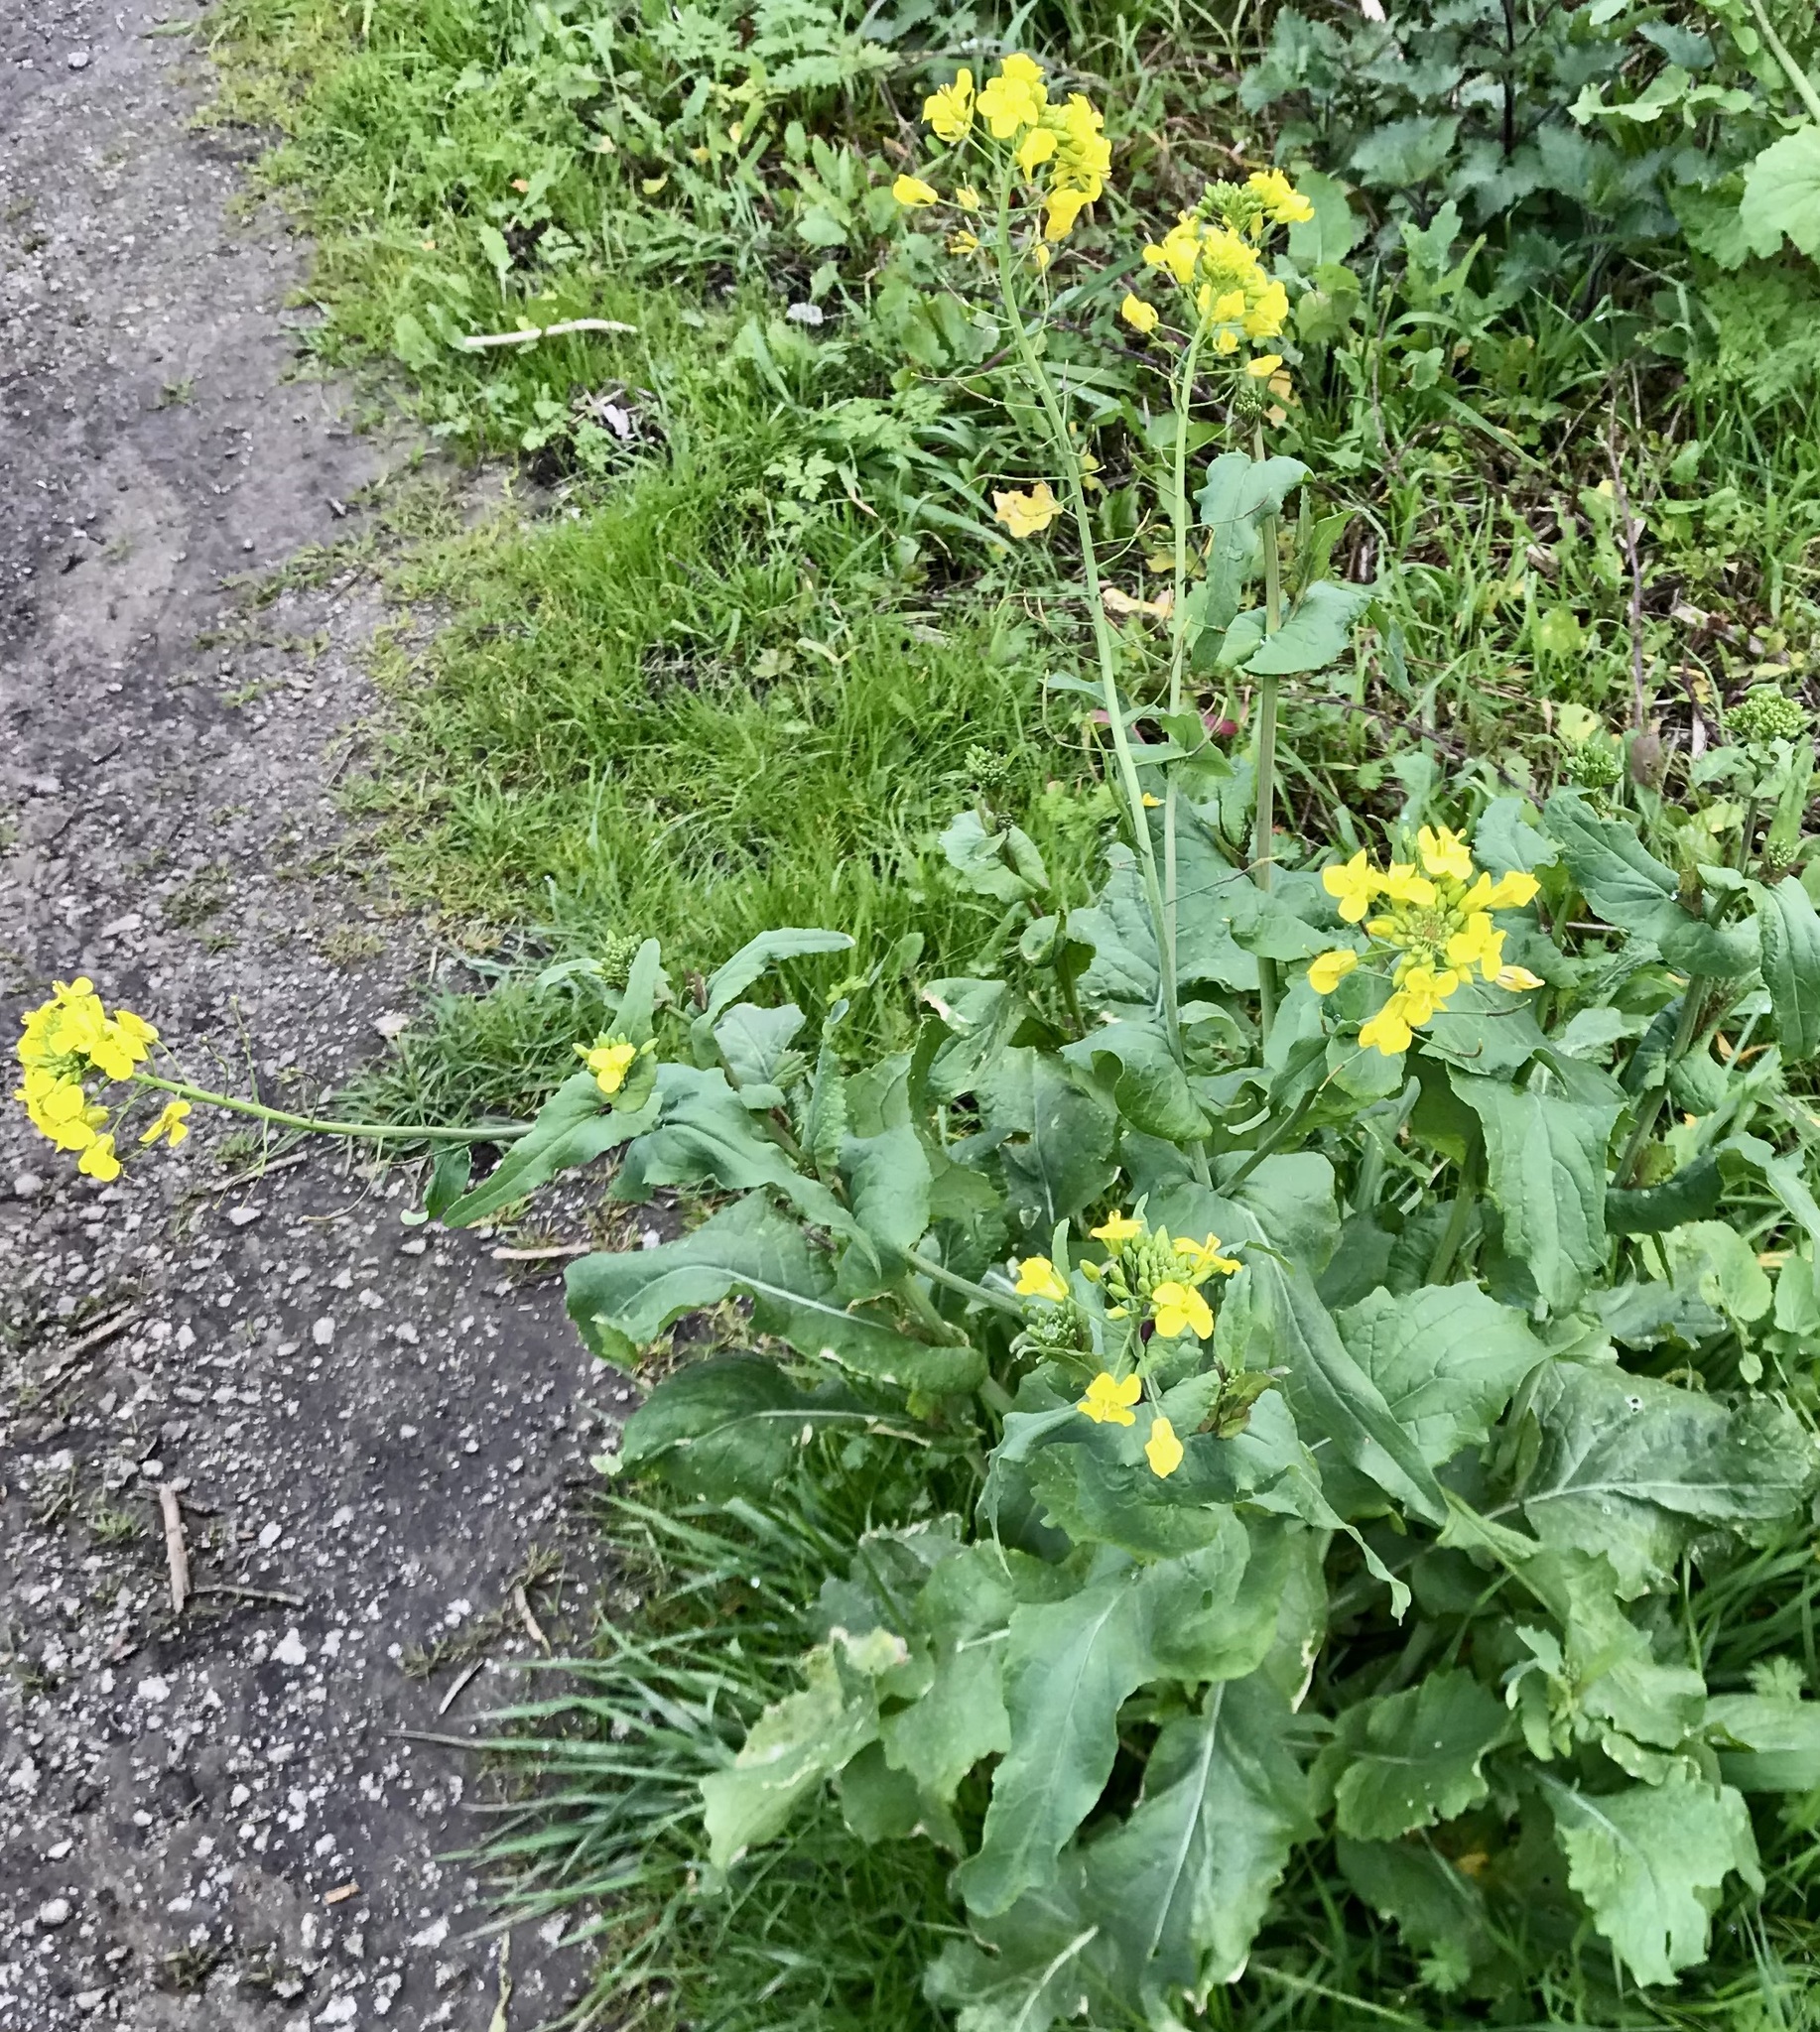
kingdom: Plantae
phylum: Tracheophyta
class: Magnoliopsida
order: Brassicales
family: Brassicaceae
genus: Brassica
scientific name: Brassica rapa
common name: Field mustard
